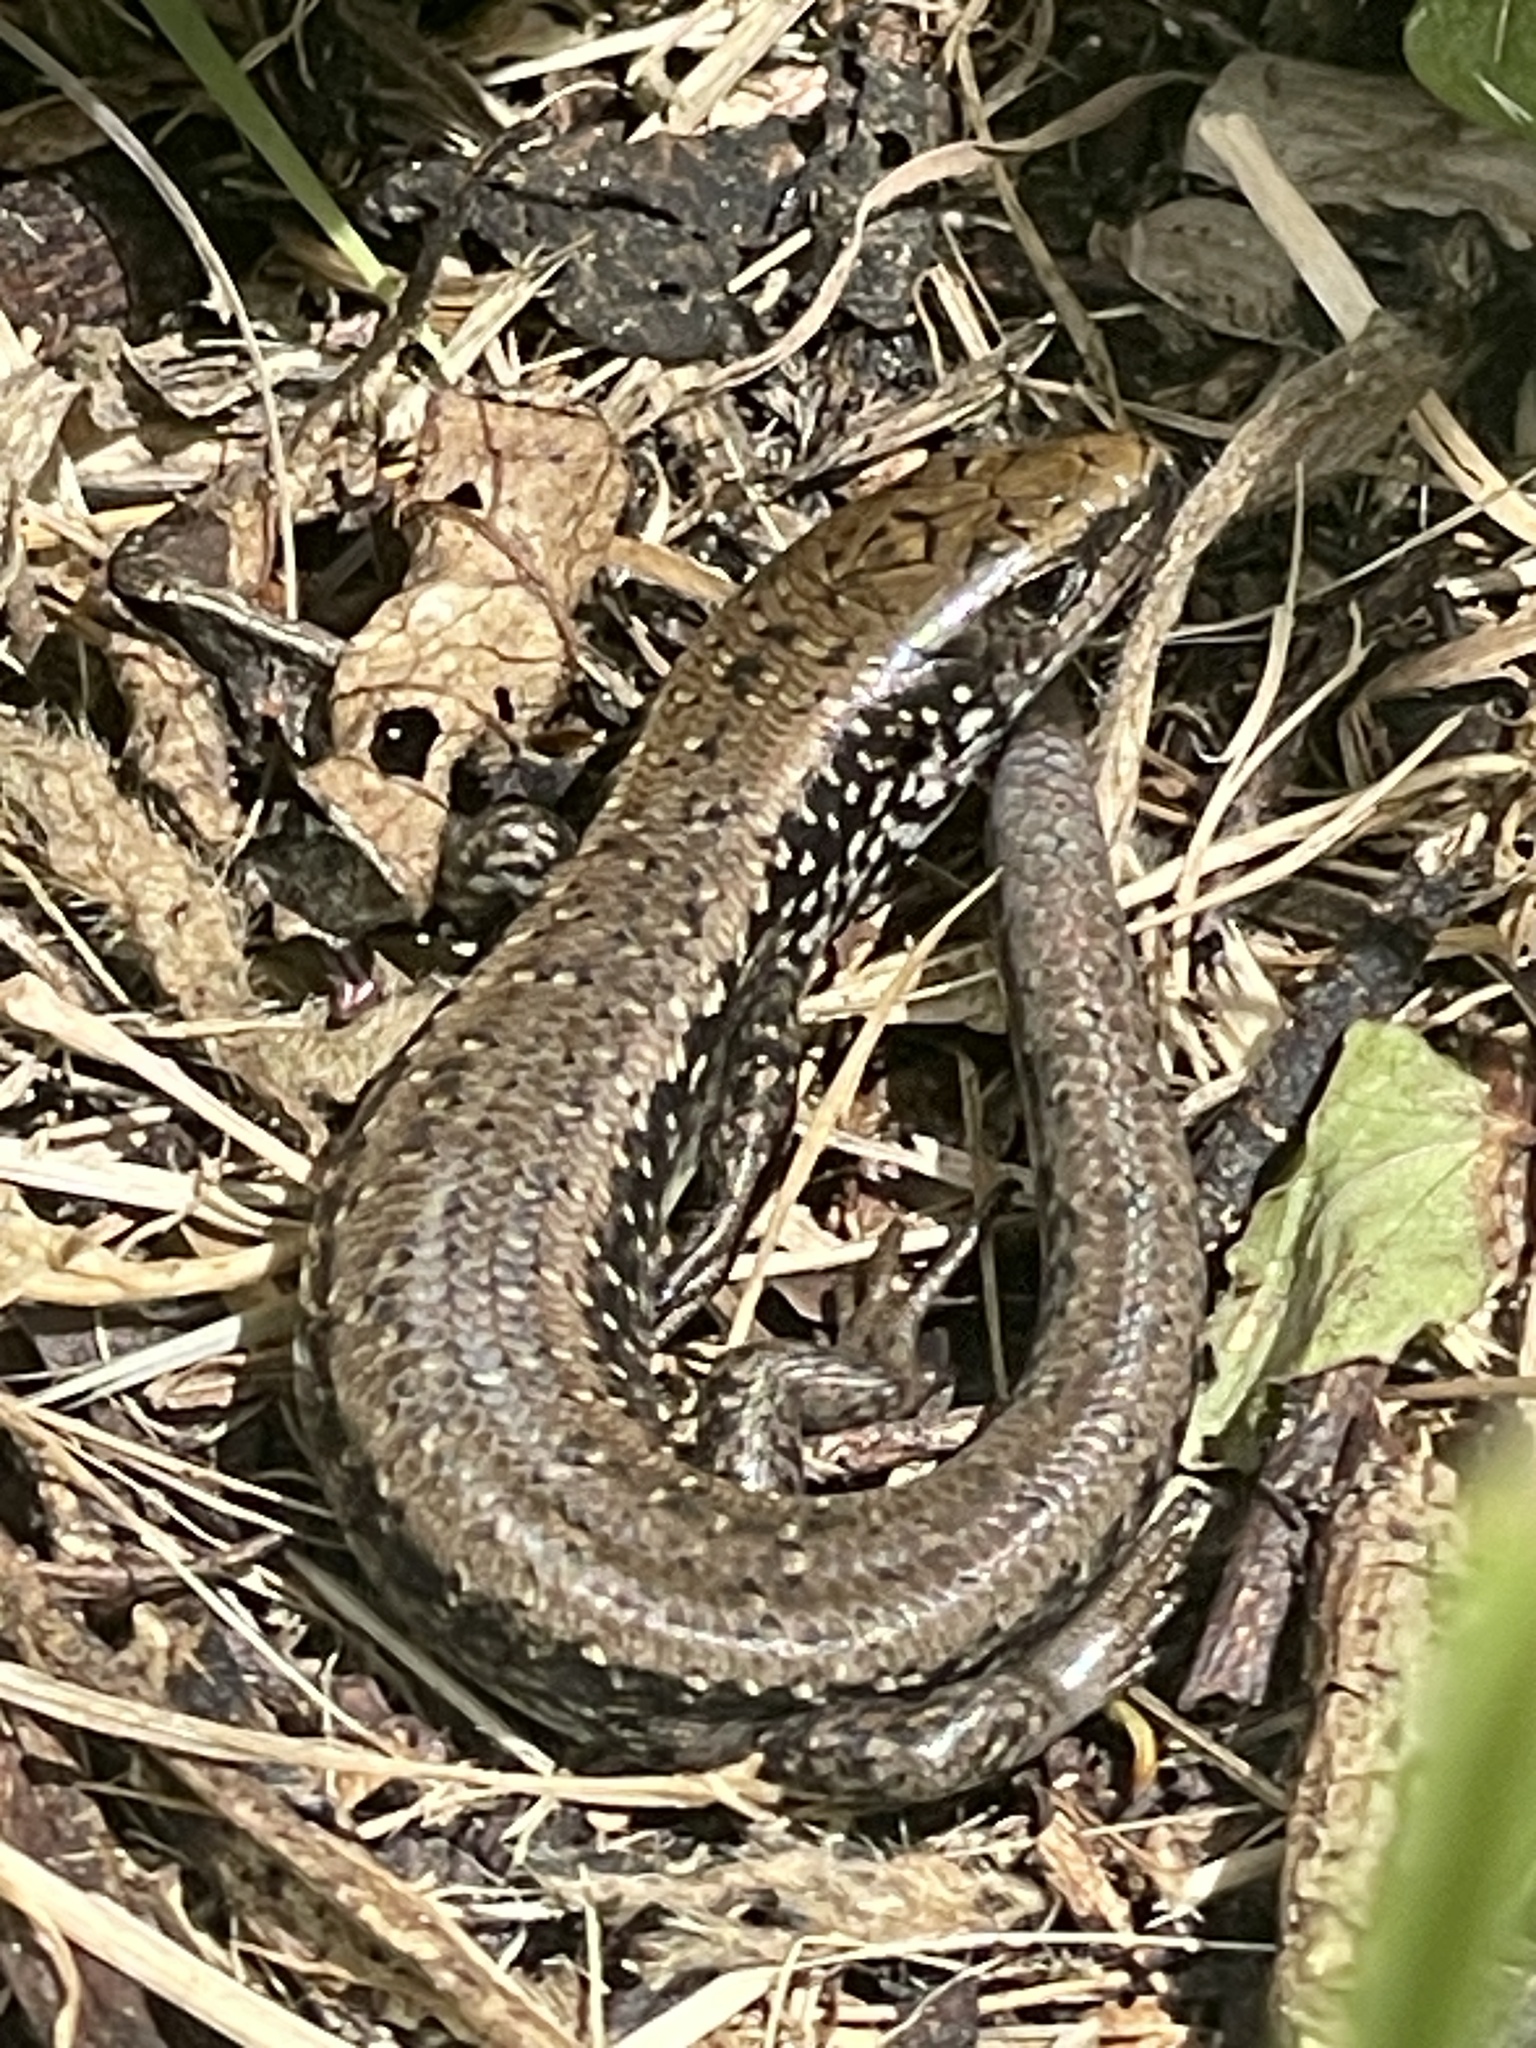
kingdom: Animalia
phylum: Chordata
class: Squamata
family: Scincidae
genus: Oligosoma
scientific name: Oligosoma chloronoton
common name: Green skink
